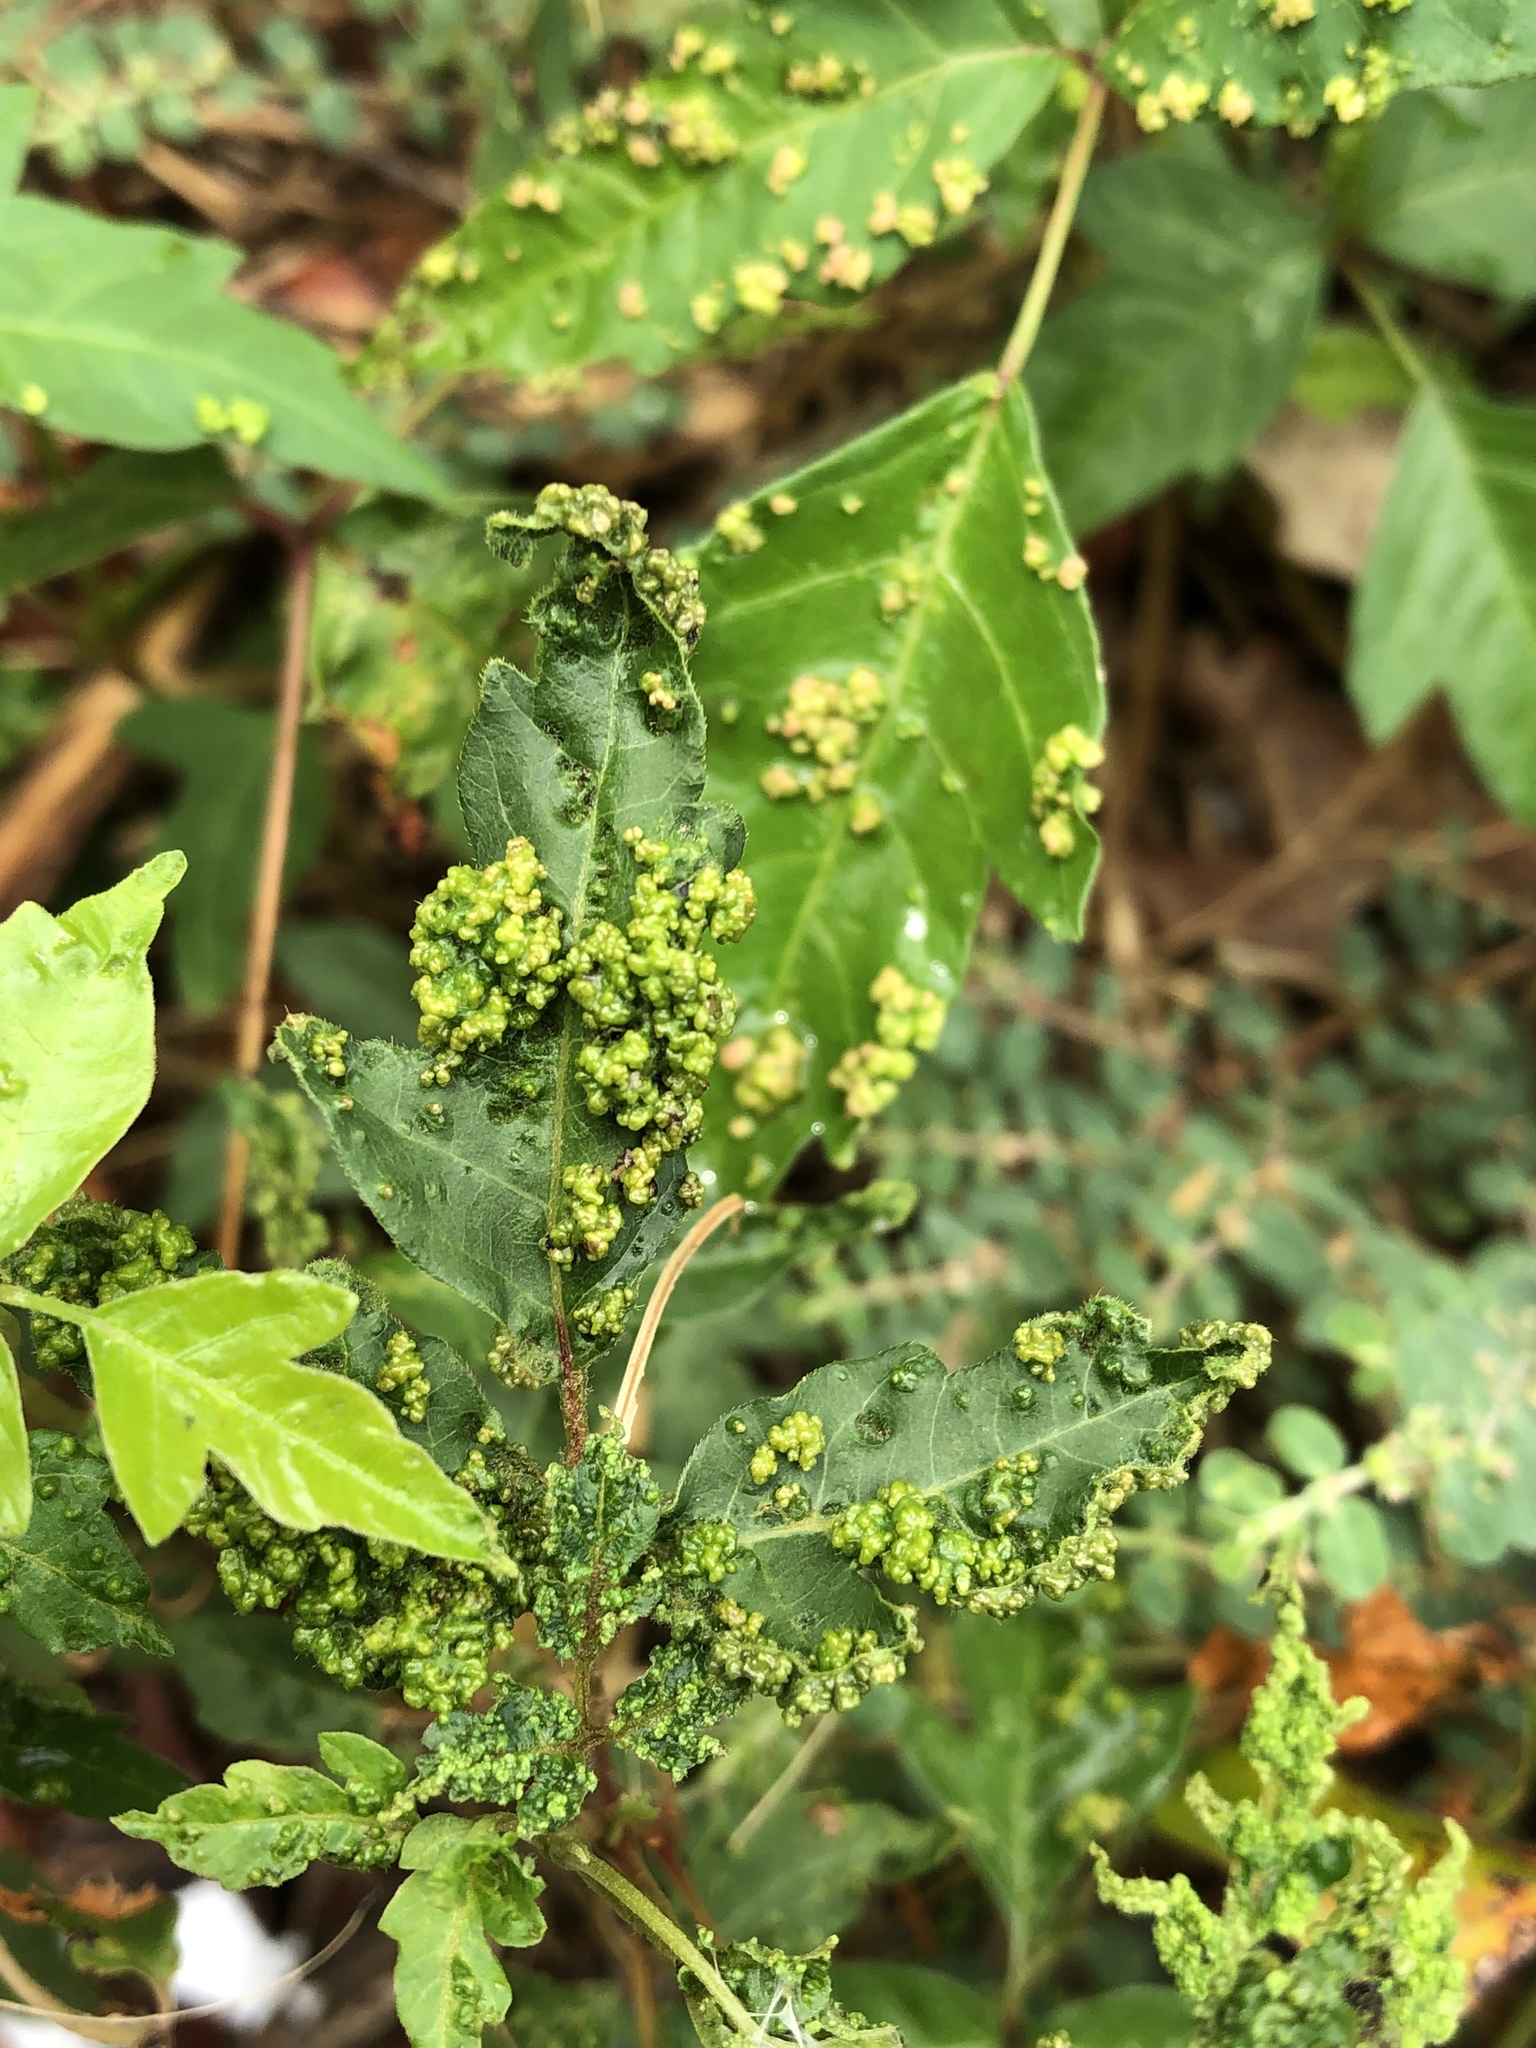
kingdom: Animalia
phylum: Arthropoda
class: Arachnida
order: Trombidiformes
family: Eriophyidae
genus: Aculops
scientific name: Aculops
